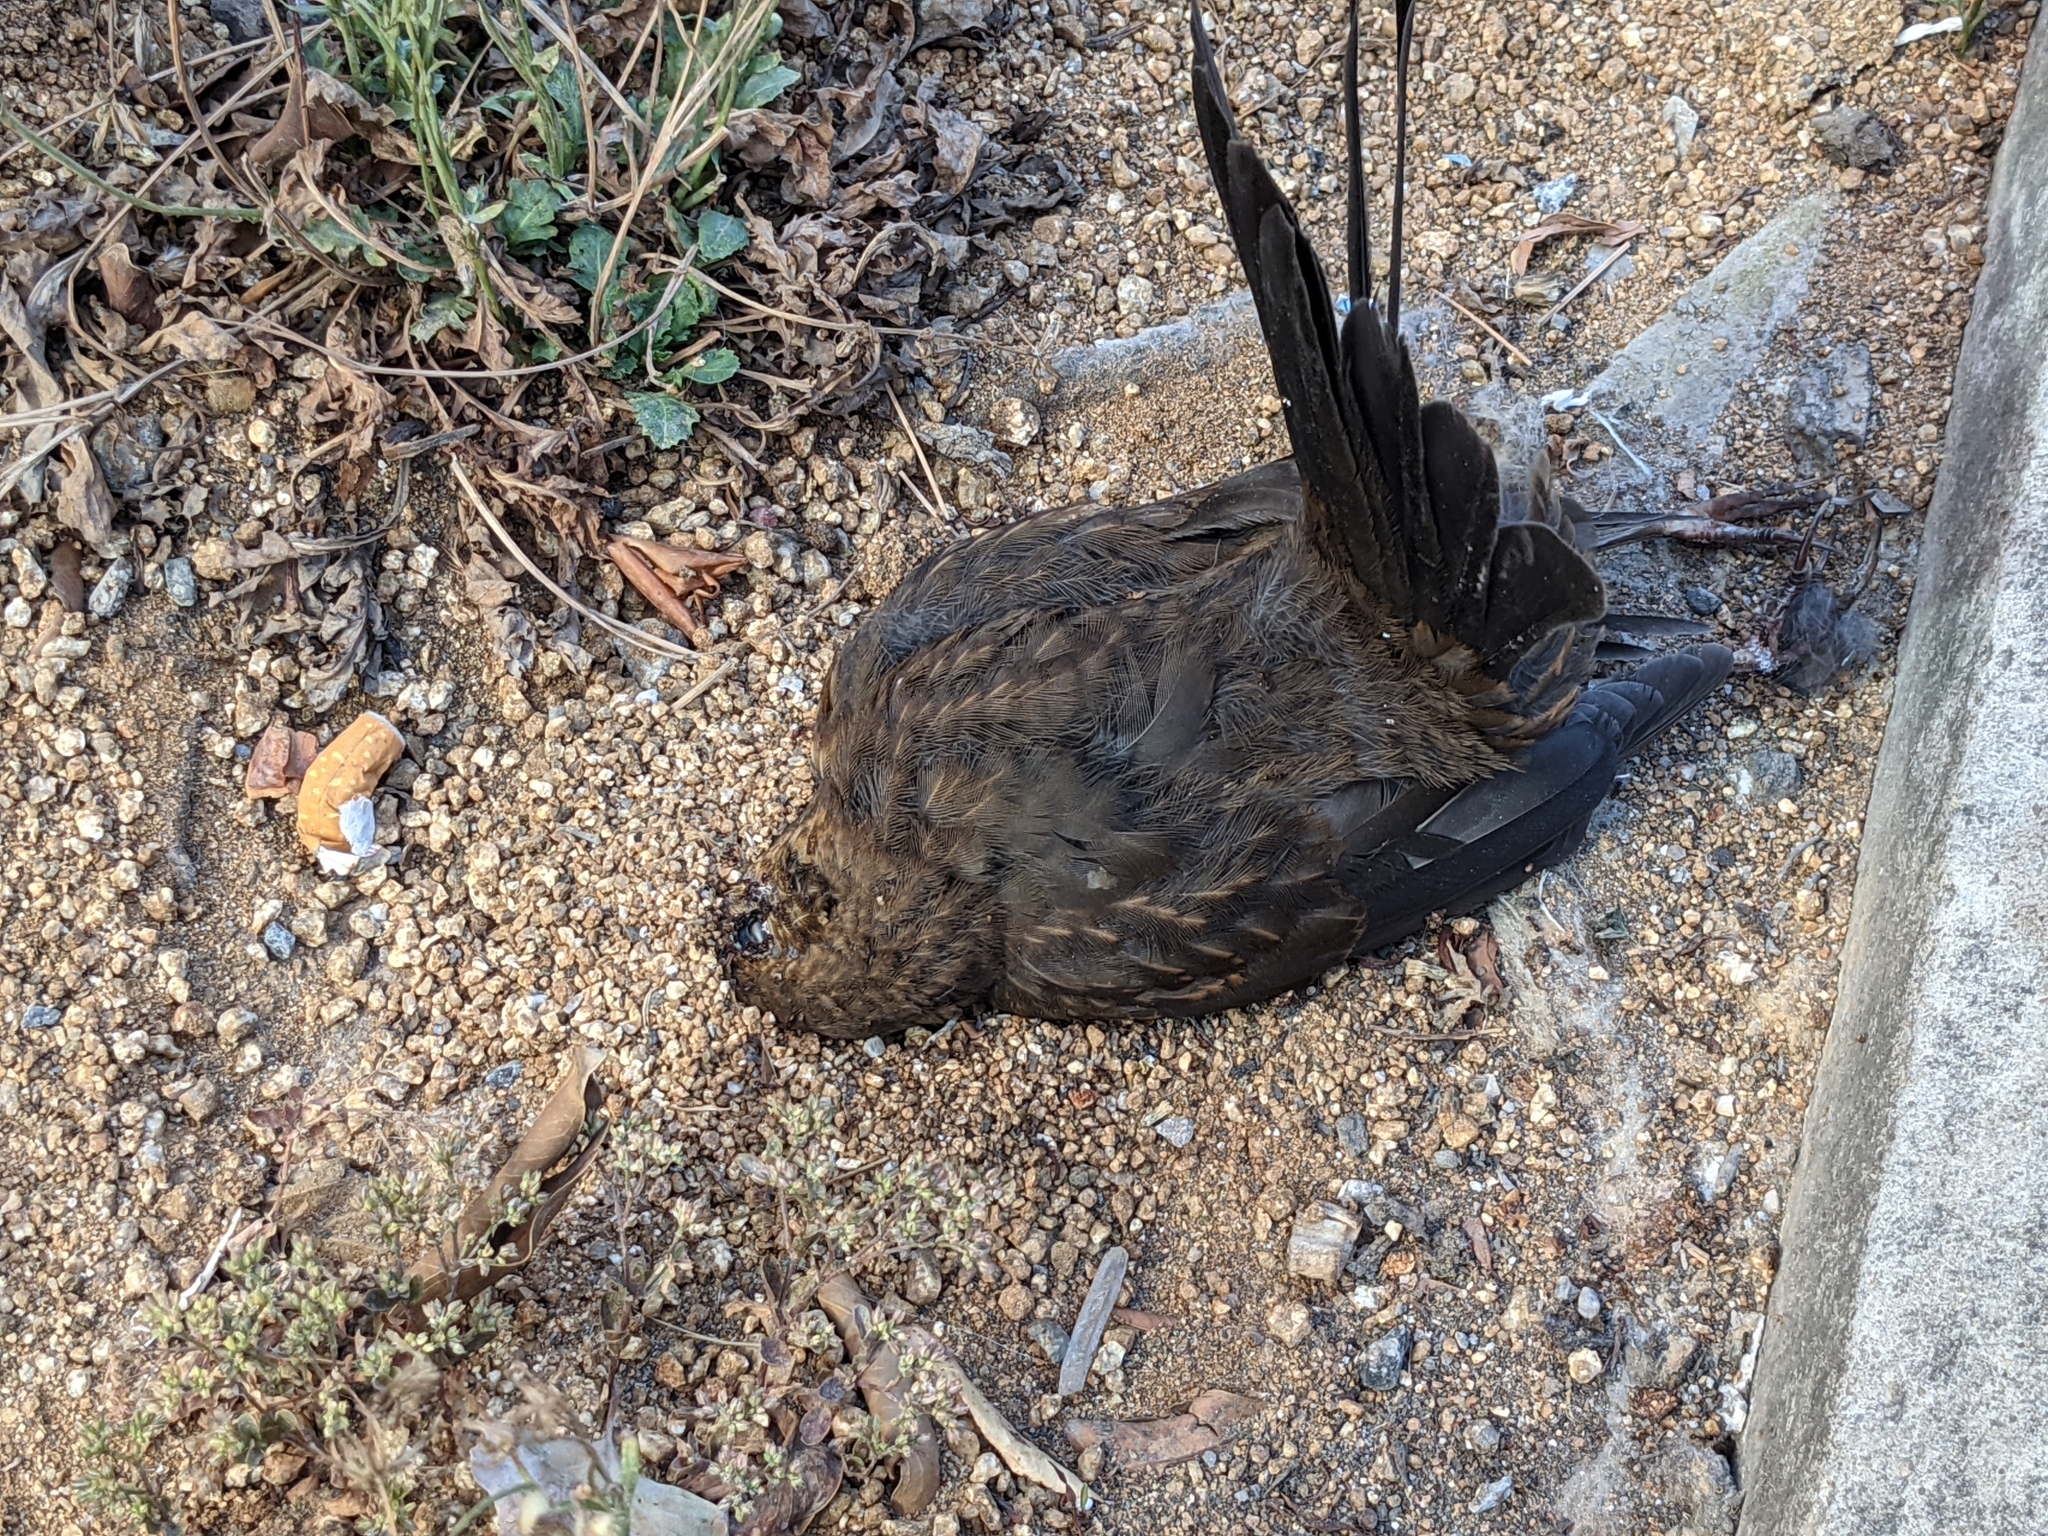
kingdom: Animalia
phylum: Chordata
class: Aves
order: Passeriformes
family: Turdidae
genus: Turdus
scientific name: Turdus merula
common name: Common blackbird
